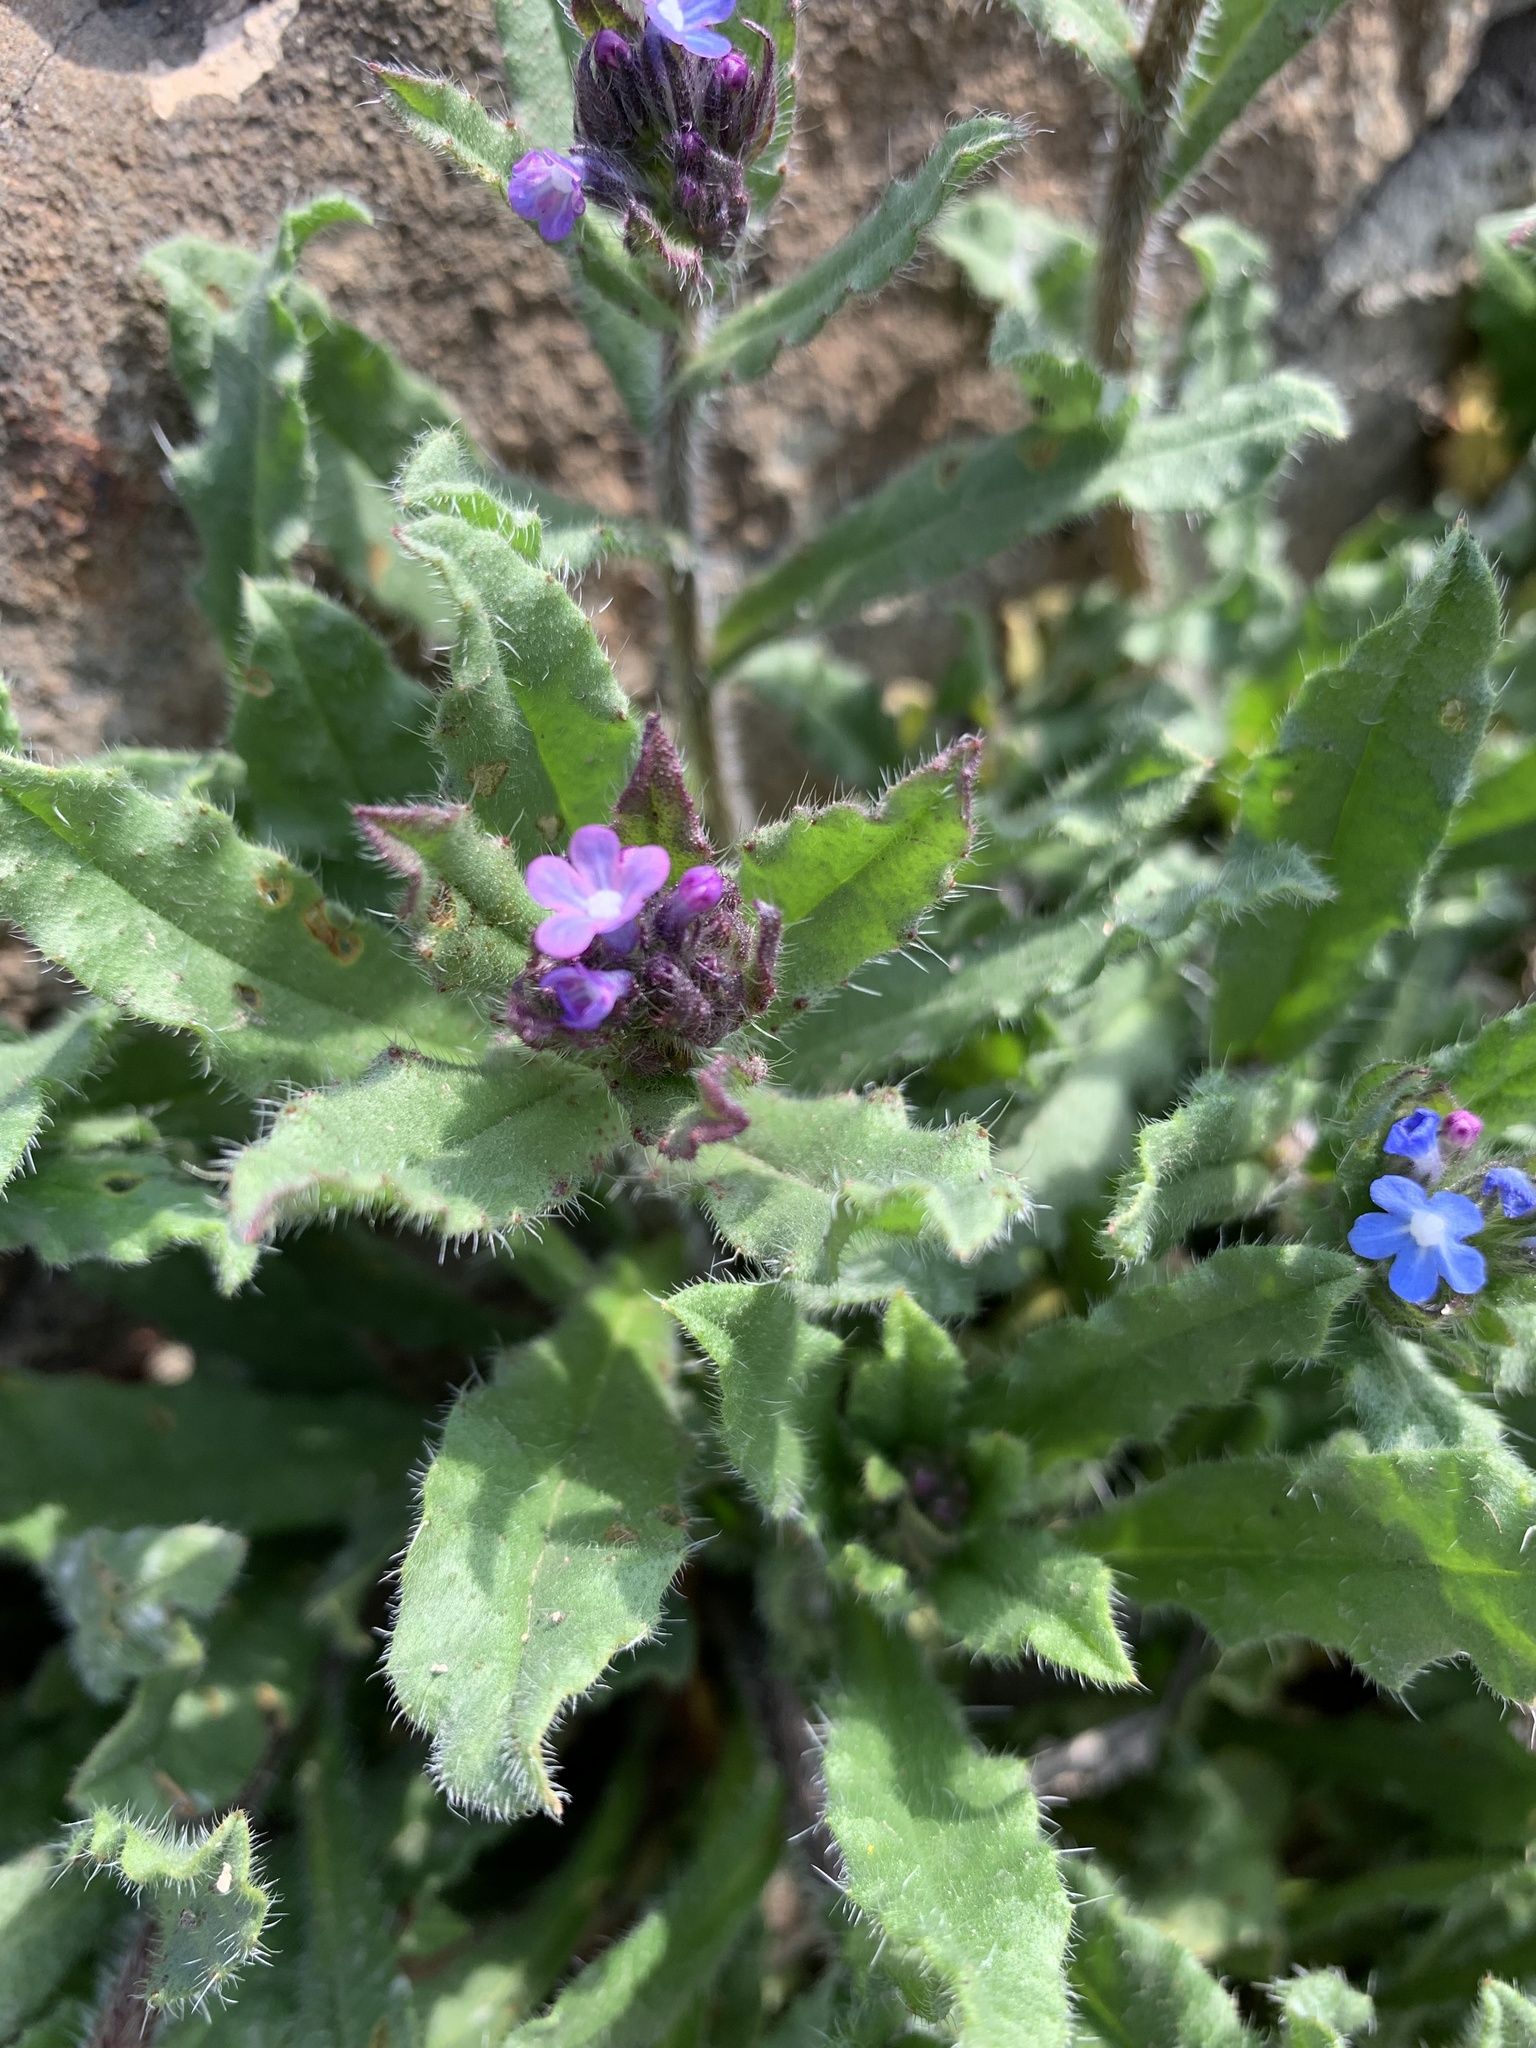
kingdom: Plantae
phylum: Tracheophyta
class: Magnoliopsida
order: Boraginales
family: Boraginaceae
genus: Lycopsis
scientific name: Lycopsis arvensis
